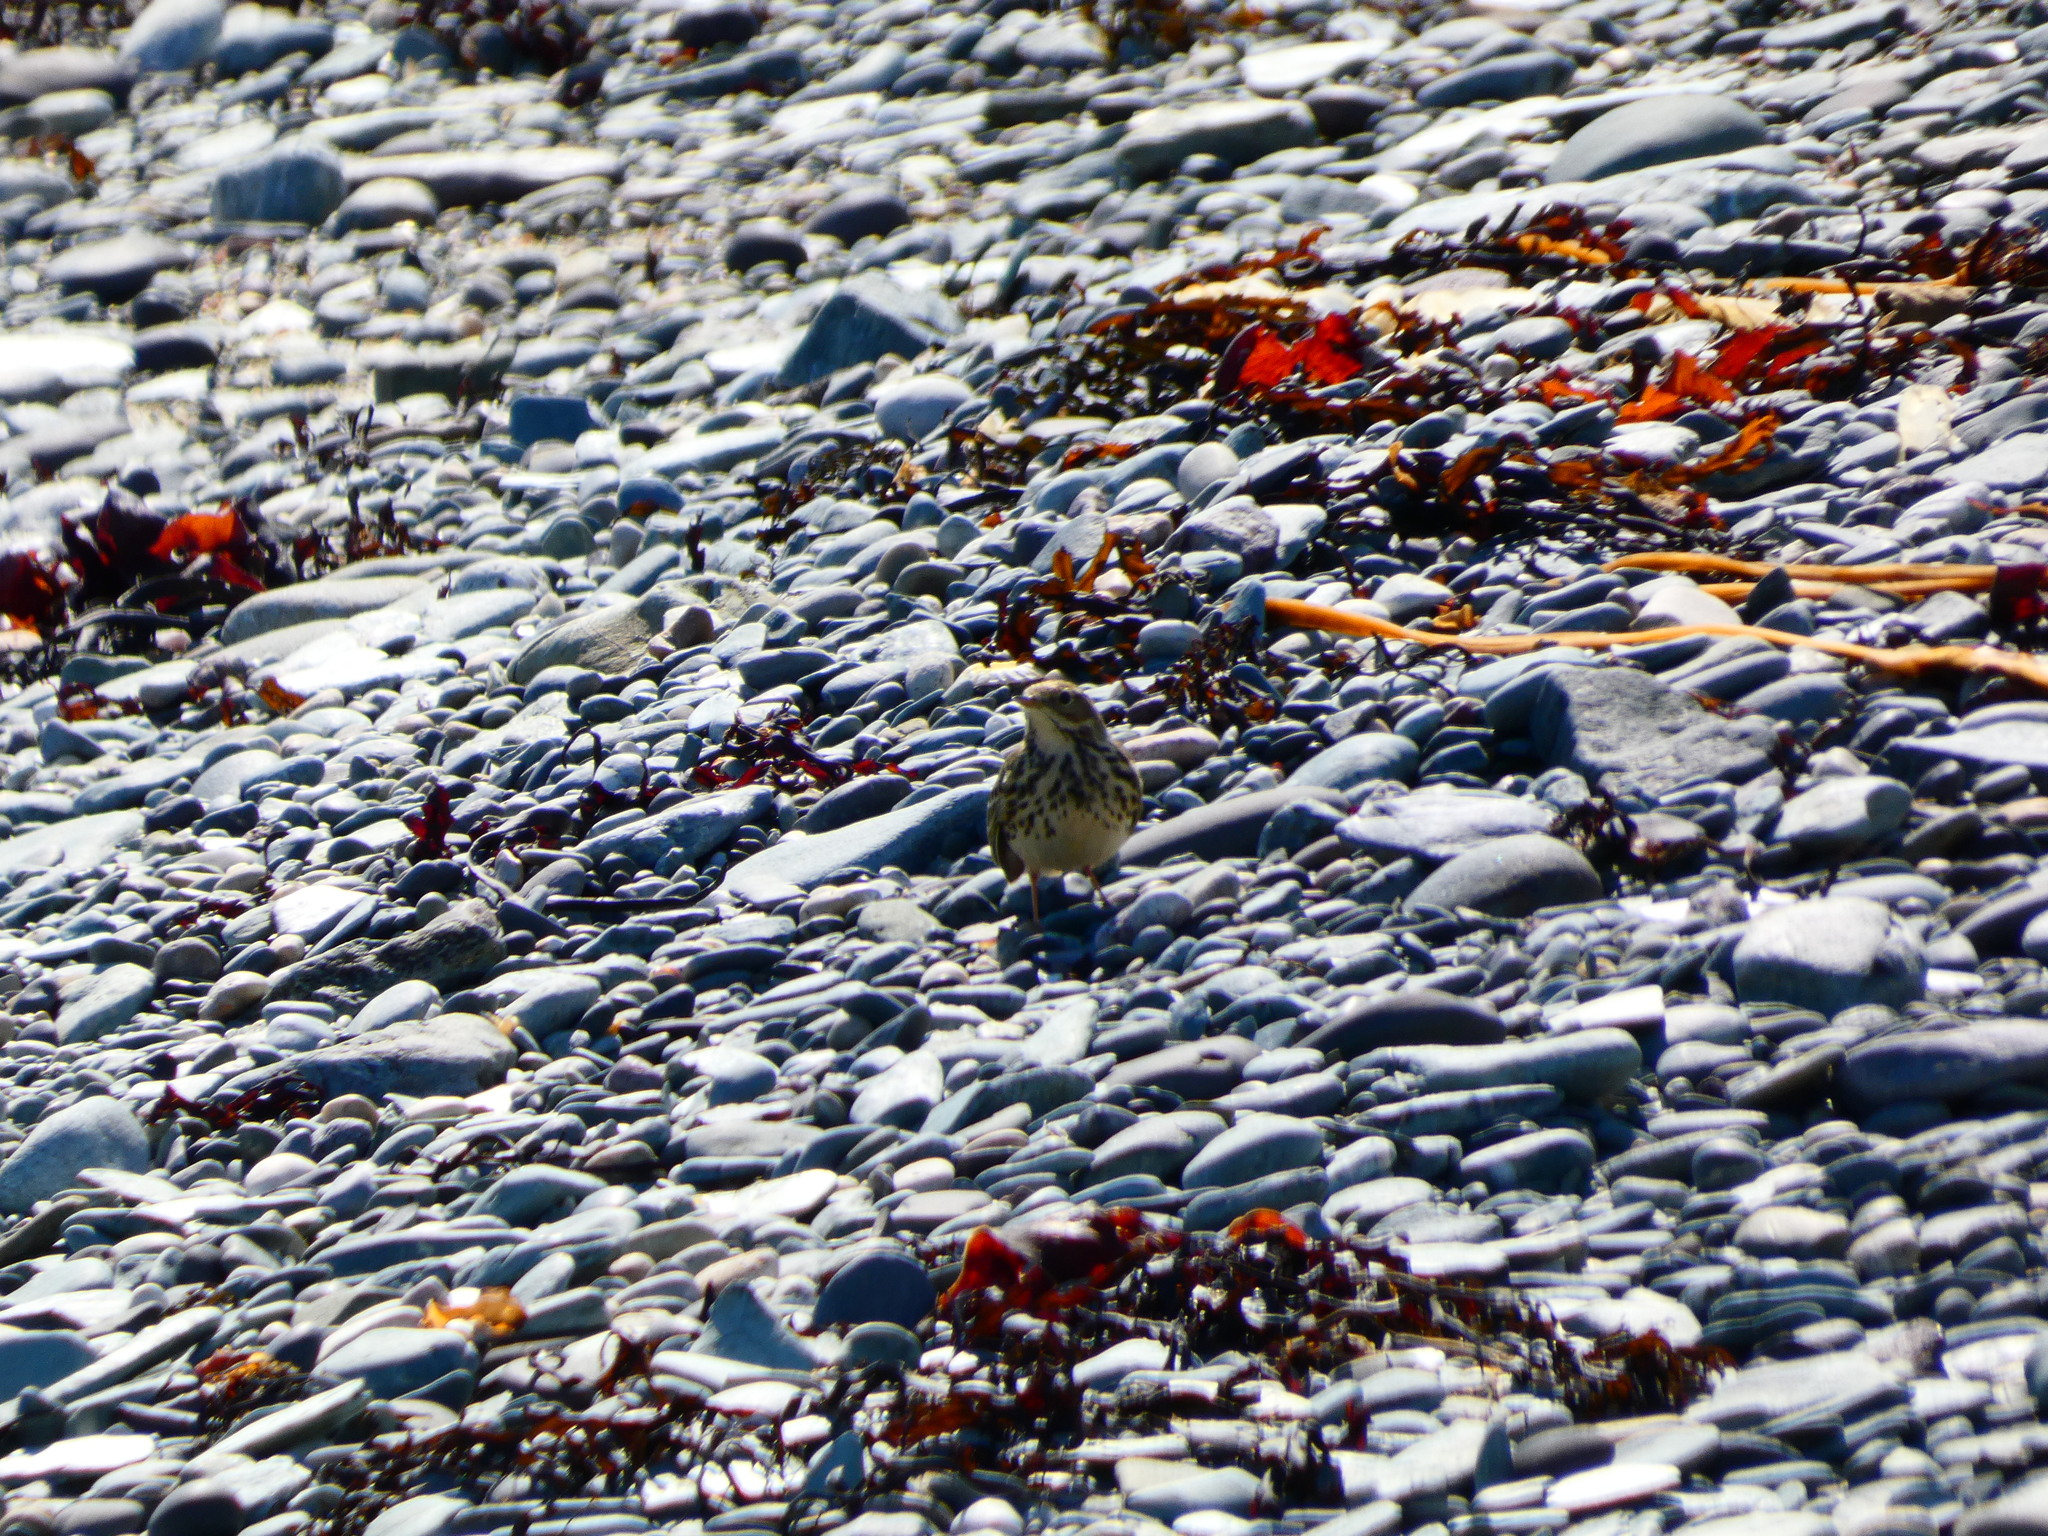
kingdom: Animalia
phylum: Chordata
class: Aves
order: Passeriformes
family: Motacillidae
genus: Anthus
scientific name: Anthus petrosus
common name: Eurasian rock pipit
